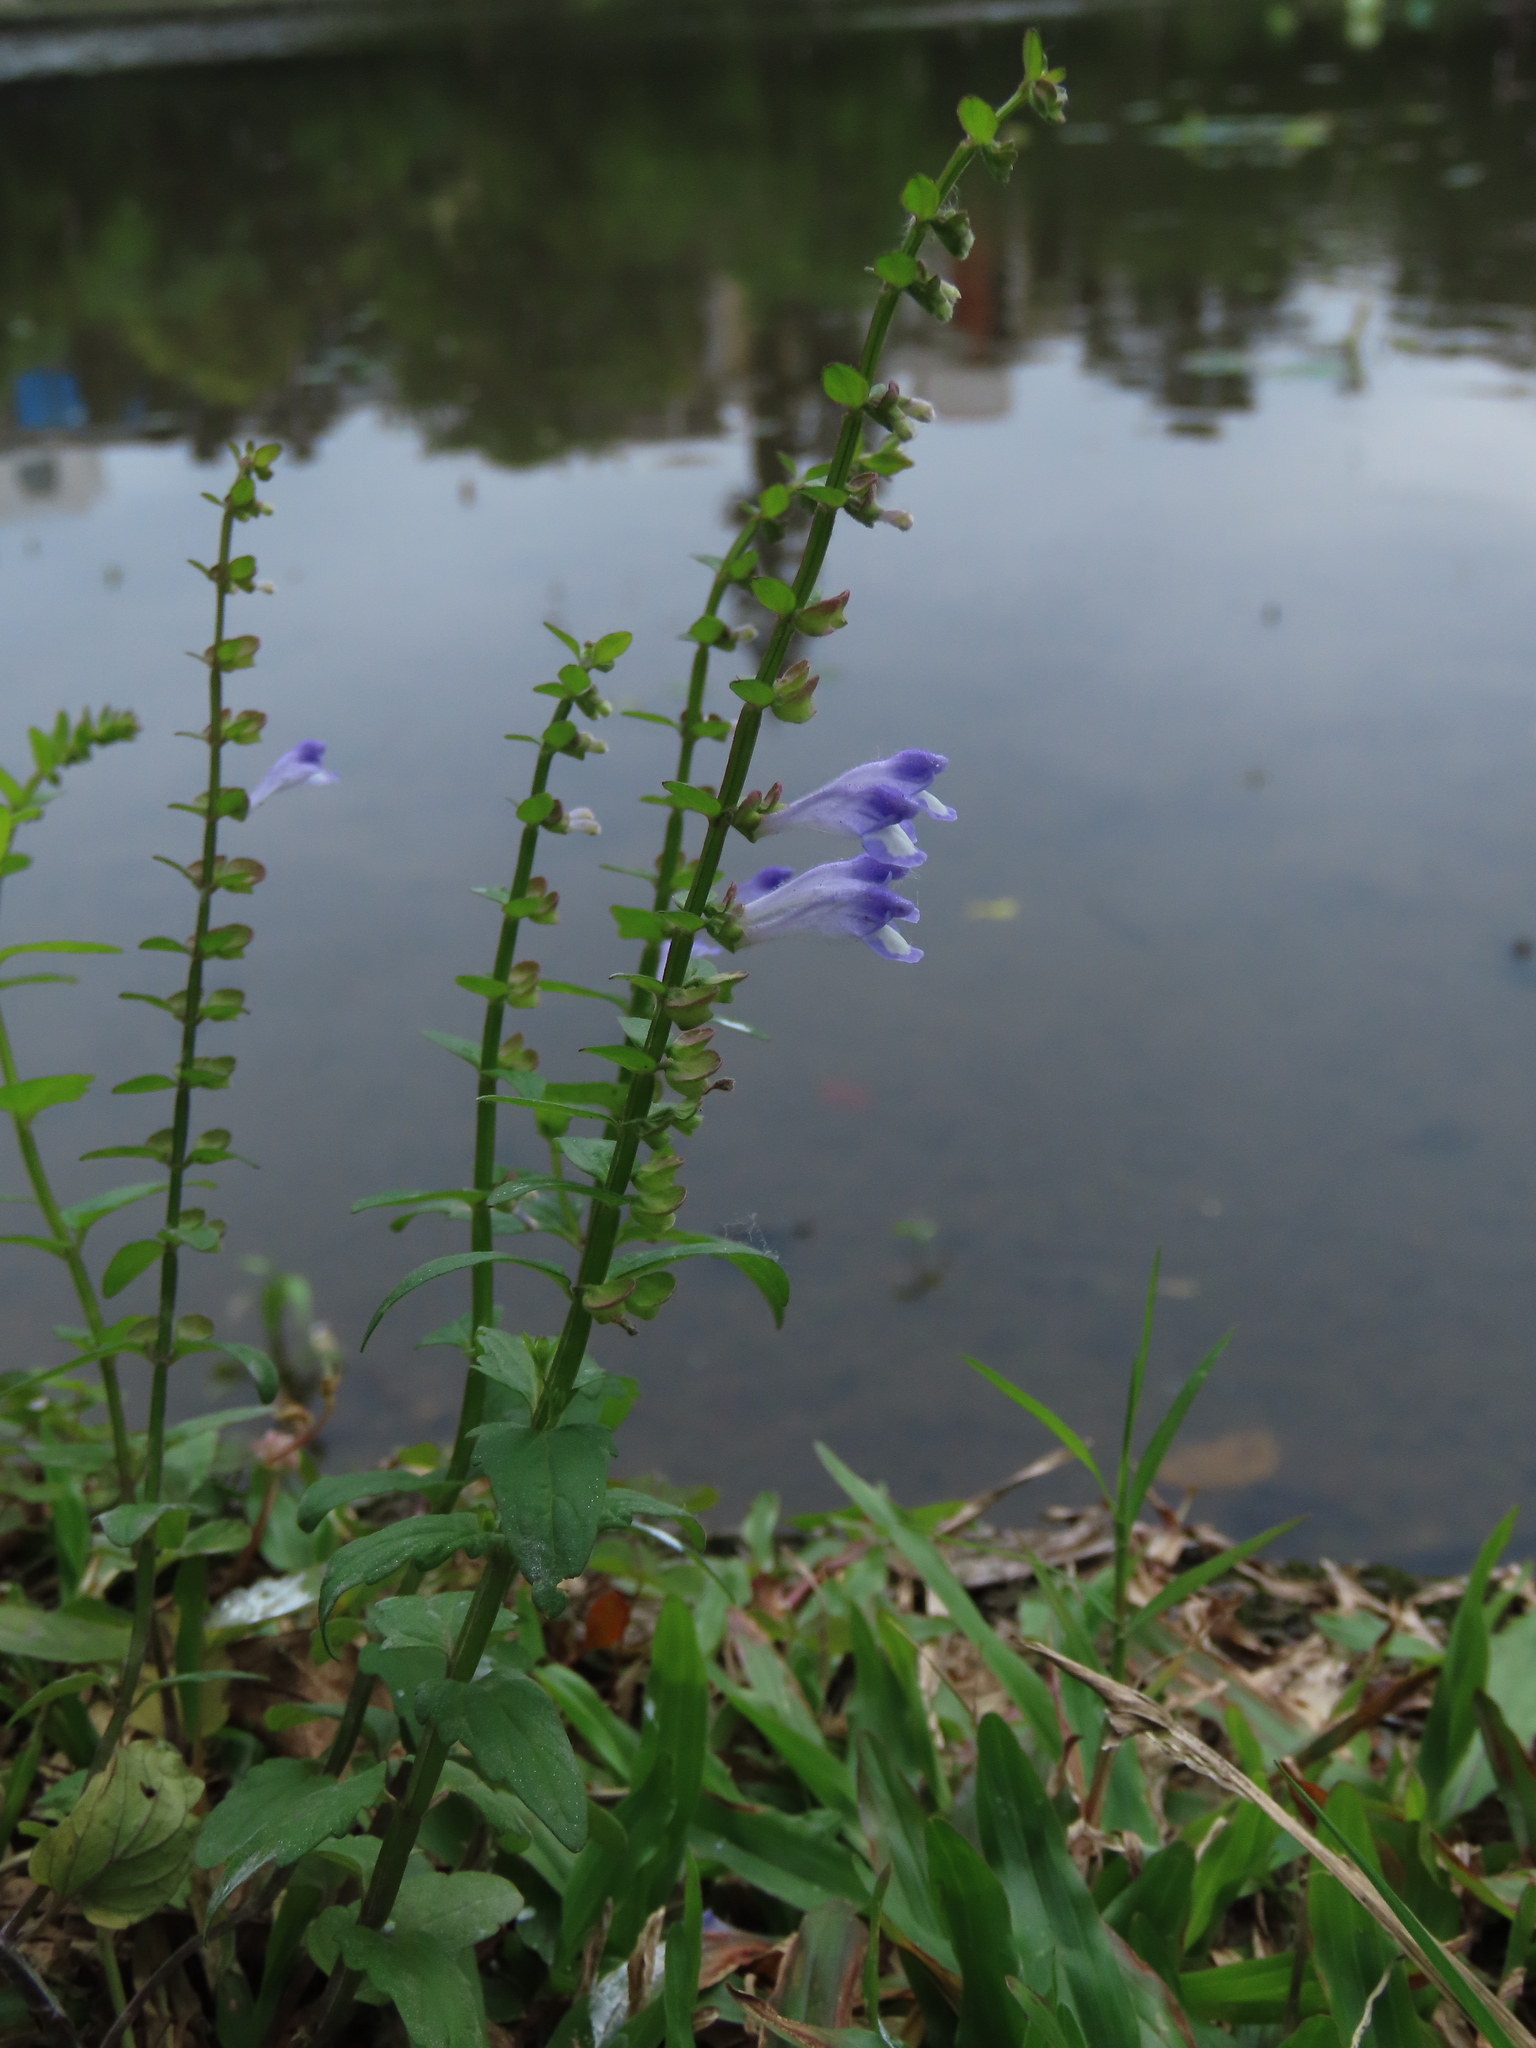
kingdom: Plantae
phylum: Tracheophyta
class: Magnoliopsida
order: Lamiales
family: Lamiaceae
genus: Scutellaria
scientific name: Scutellaria barbata
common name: Barbed skullcap
